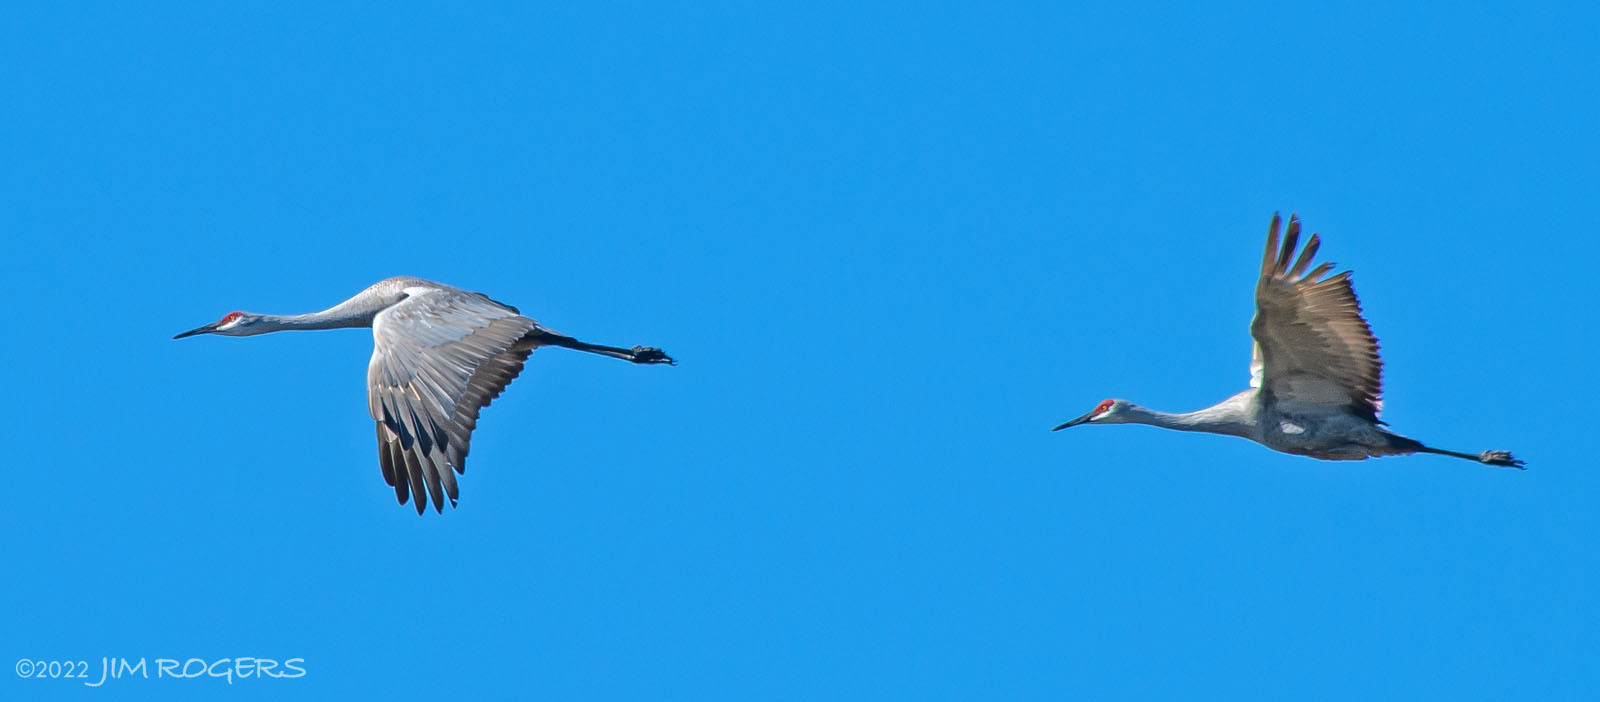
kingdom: Animalia
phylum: Chordata
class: Aves
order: Gruiformes
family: Gruidae
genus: Grus
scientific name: Grus canadensis
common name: Sandhill crane
